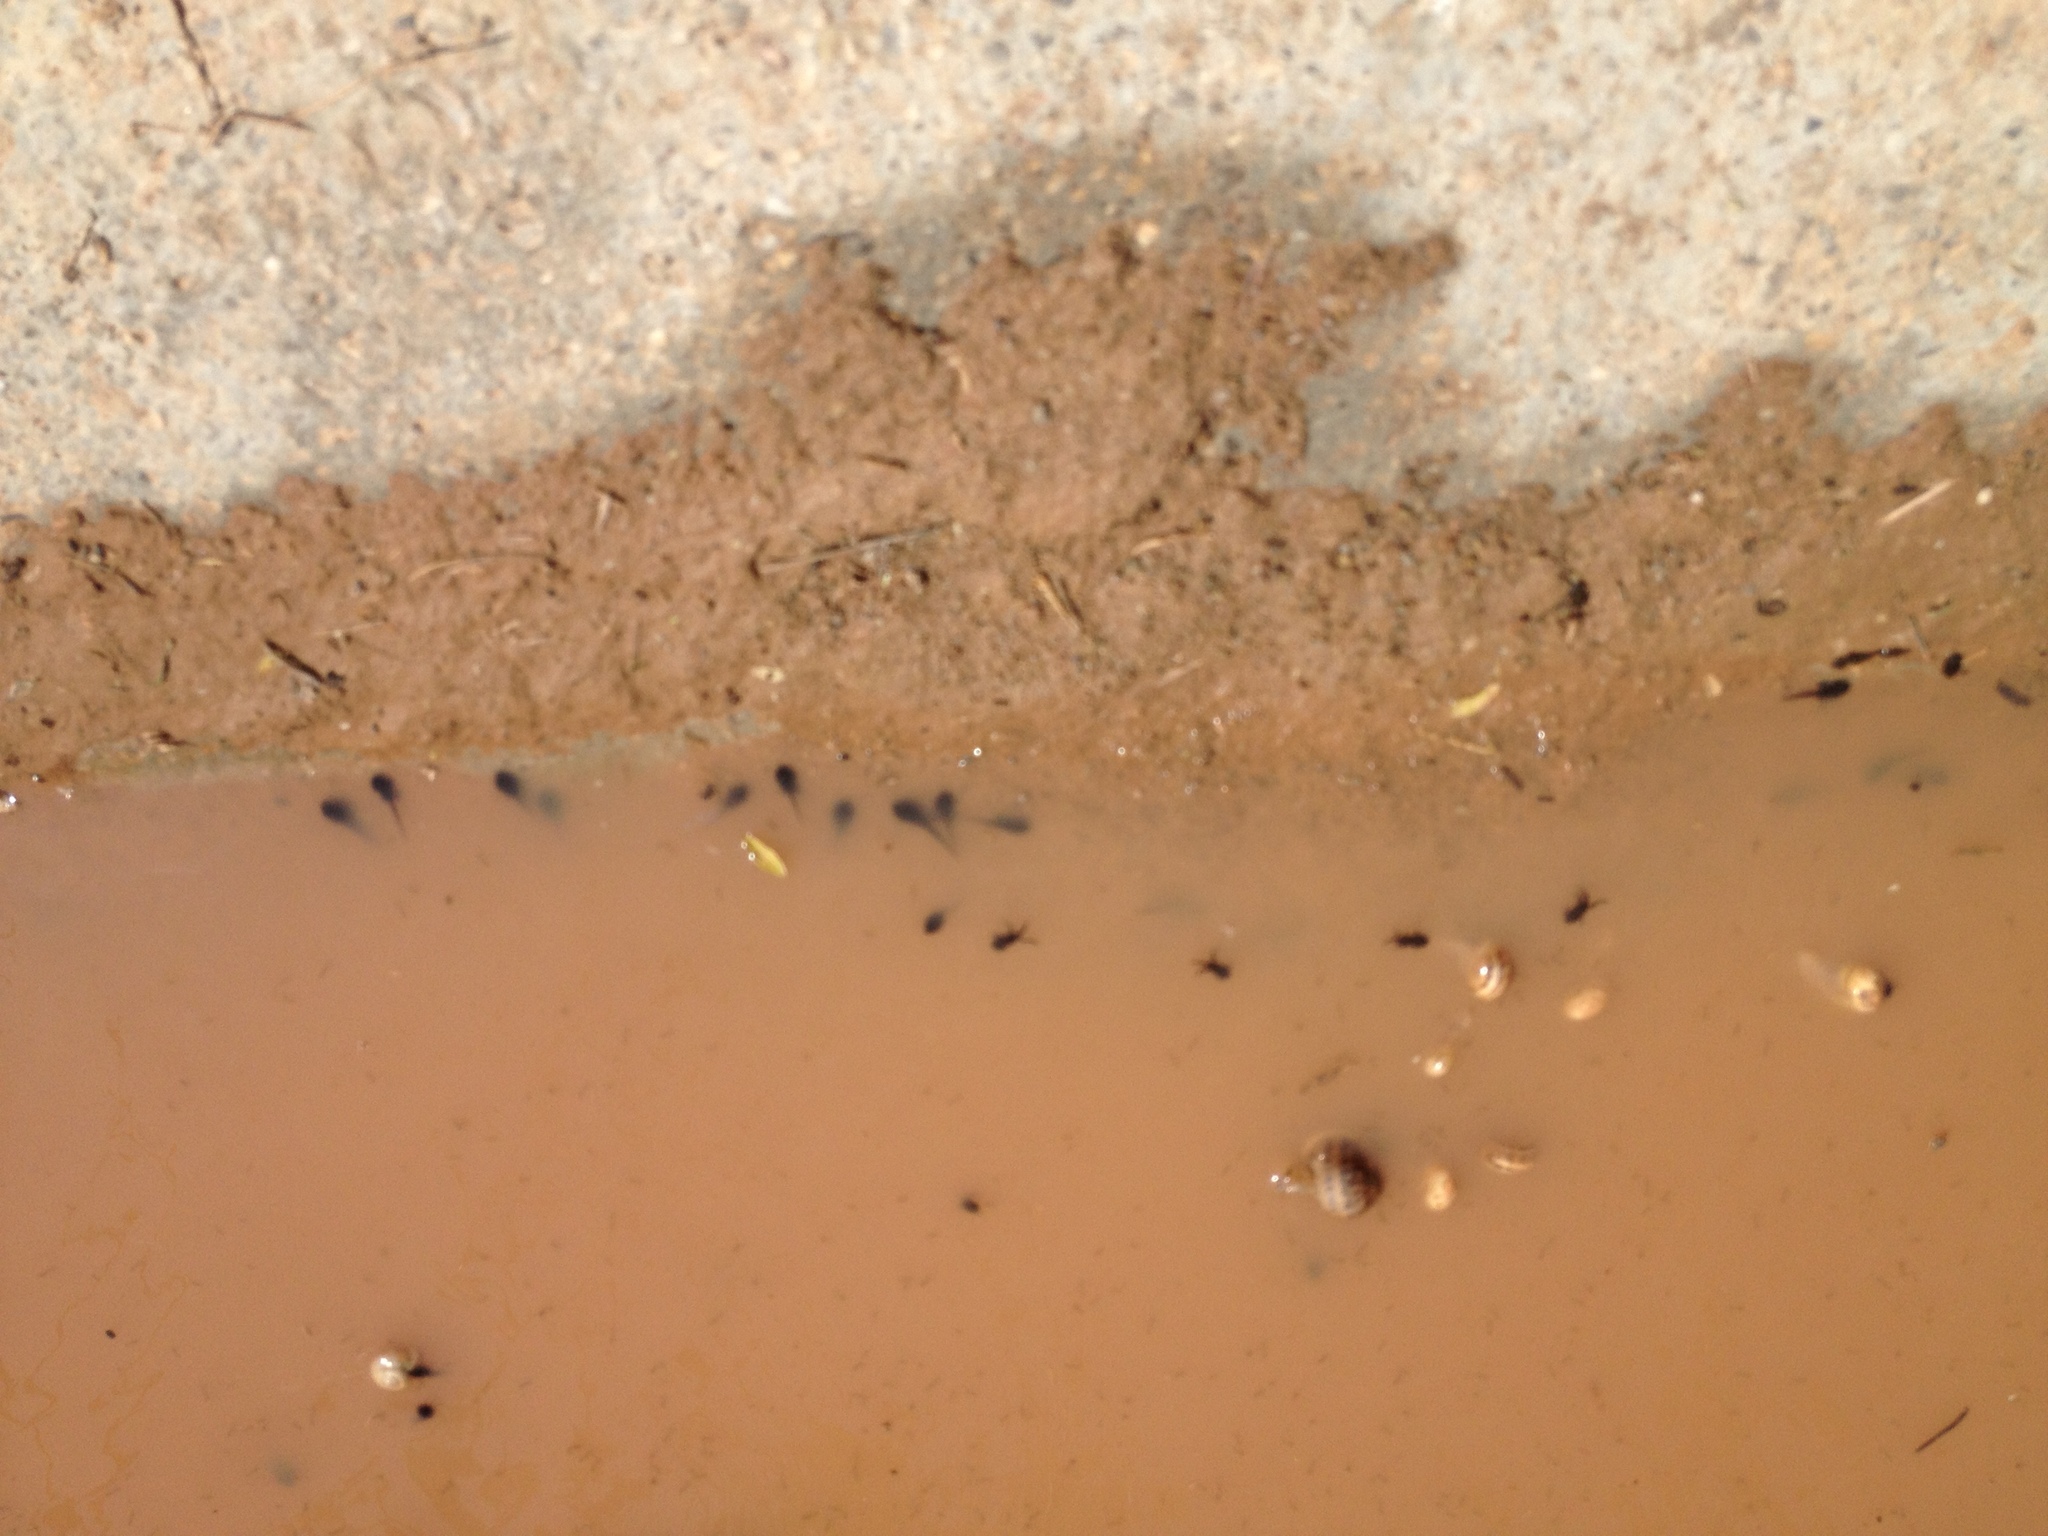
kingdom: Animalia
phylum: Chordata
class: Amphibia
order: Anura
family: Bufonidae
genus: Epidalea
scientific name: Epidalea calamita
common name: Natterjack toad
